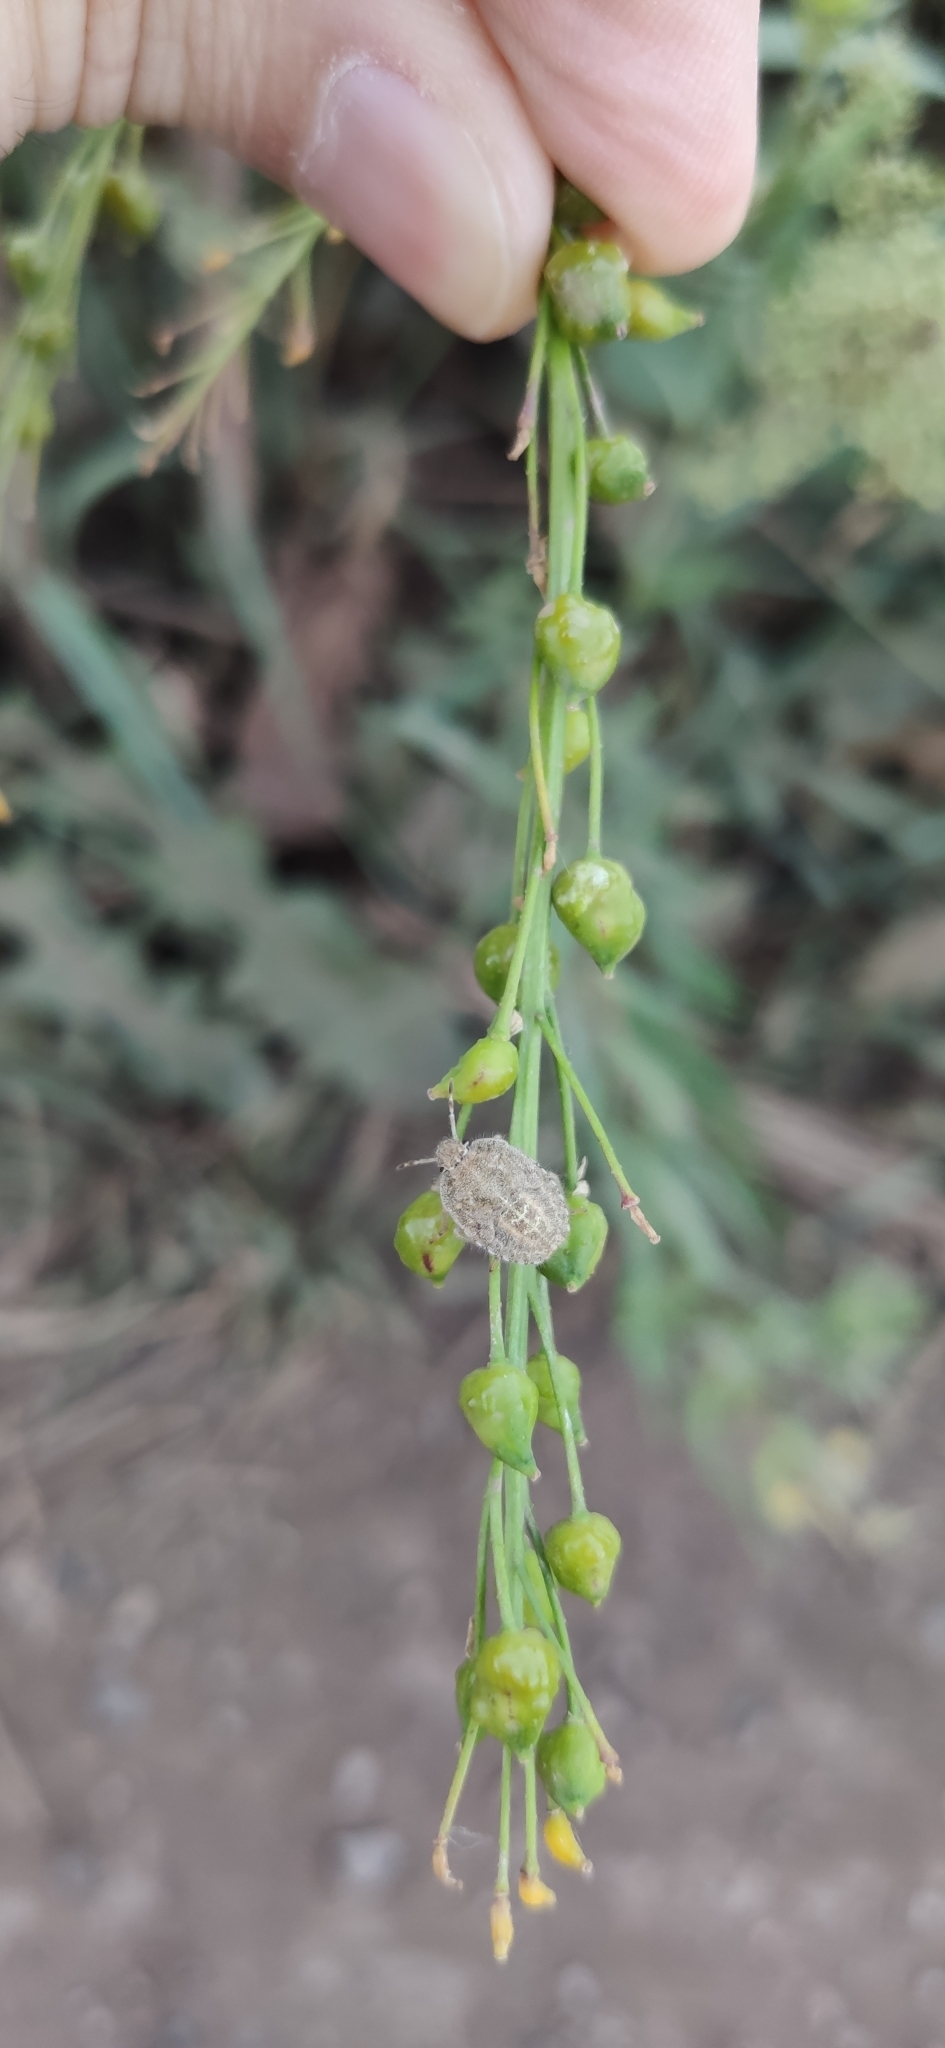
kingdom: Animalia
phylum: Arthropoda
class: Insecta
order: Hemiptera
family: Pentatomidae
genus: Dolycoris
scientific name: Dolycoris baccarum
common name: Sloe bug
